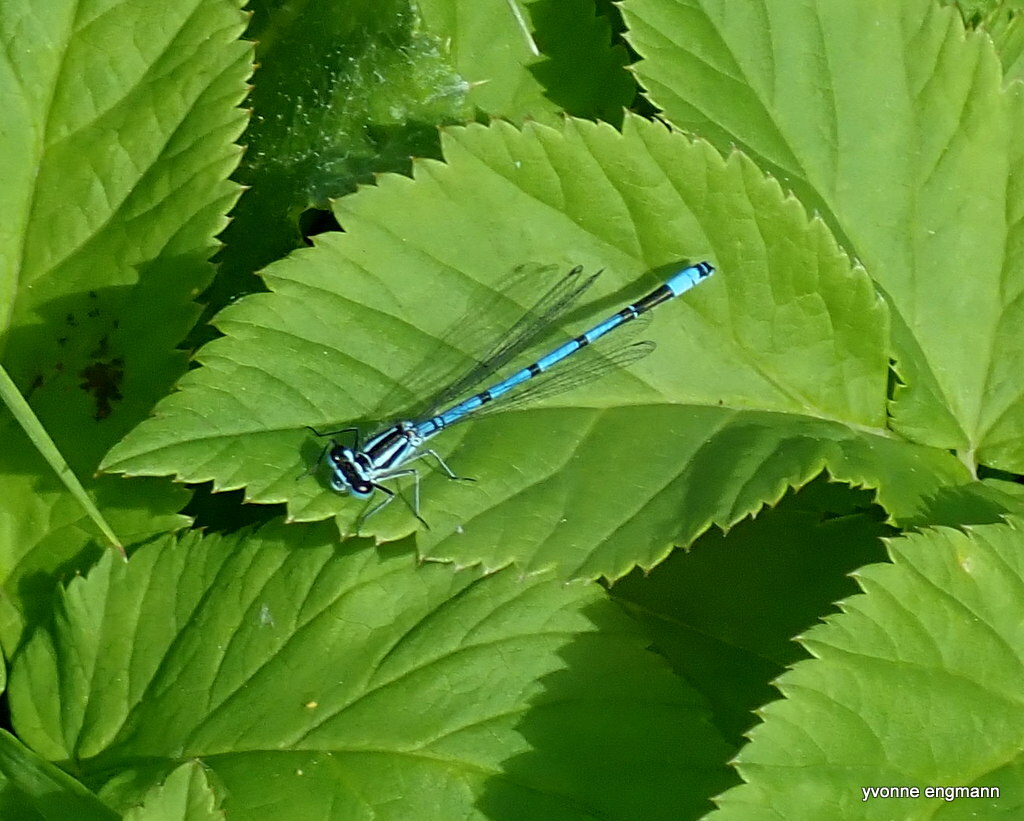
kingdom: Animalia
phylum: Arthropoda
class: Insecta
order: Odonata
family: Coenagrionidae
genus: Coenagrion
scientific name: Coenagrion puella
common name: Azure damselfly
